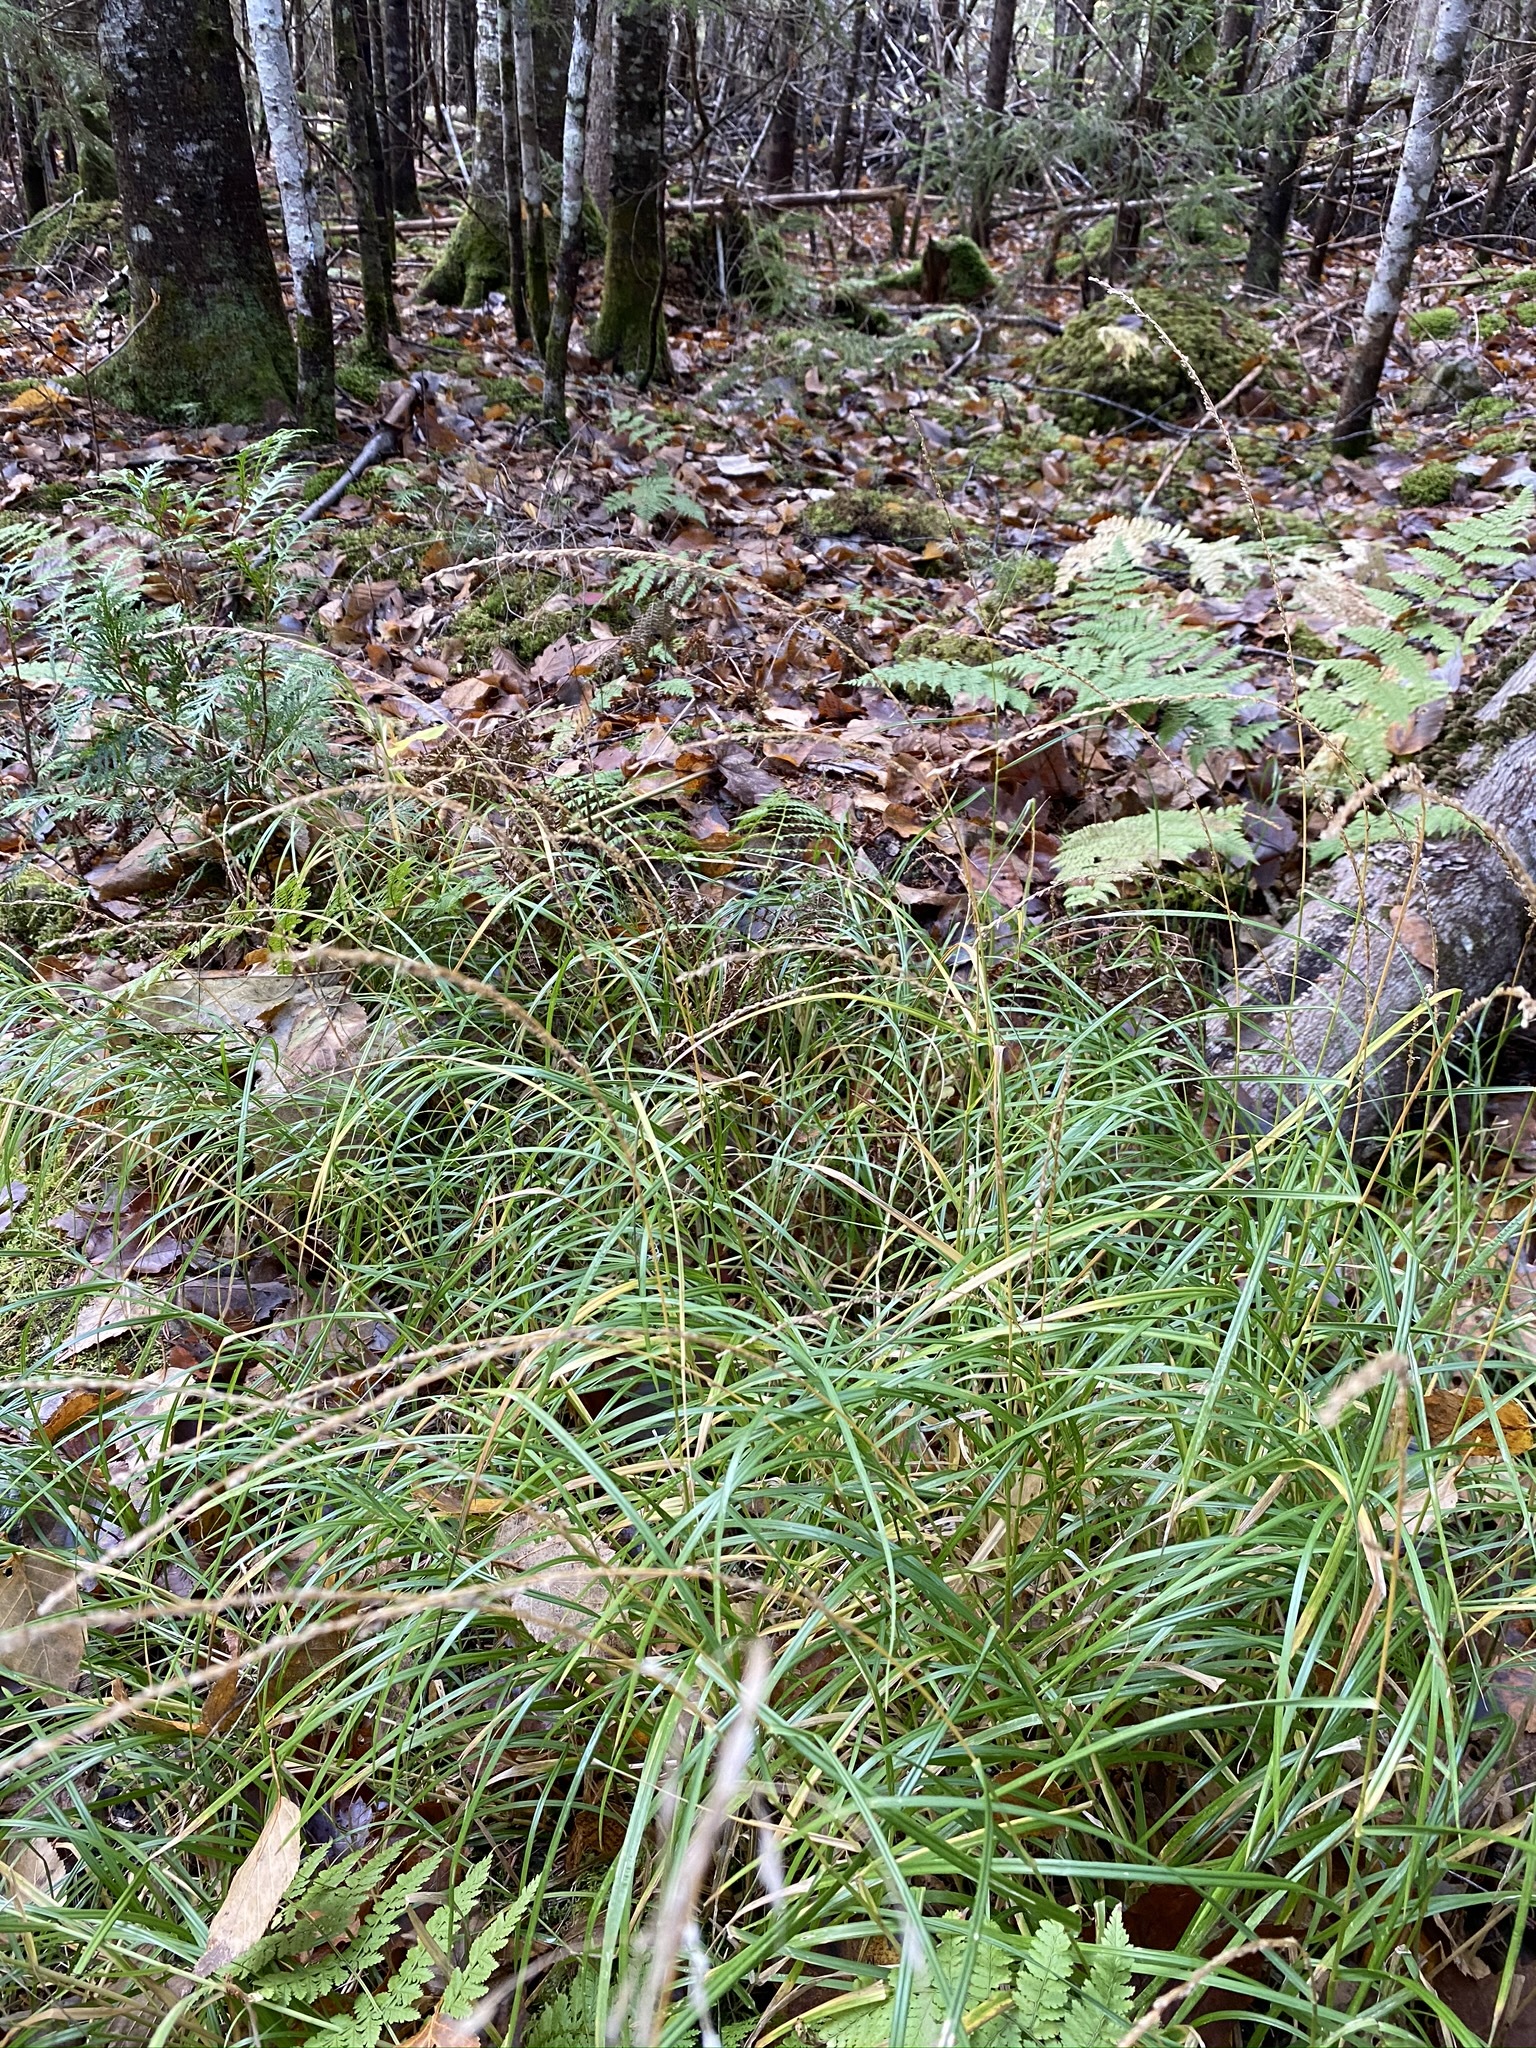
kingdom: Plantae
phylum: Tracheophyta
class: Liliopsida
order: Poales
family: Poaceae
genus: Glyceria
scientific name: Glyceria melicaria
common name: Long mannagrass
